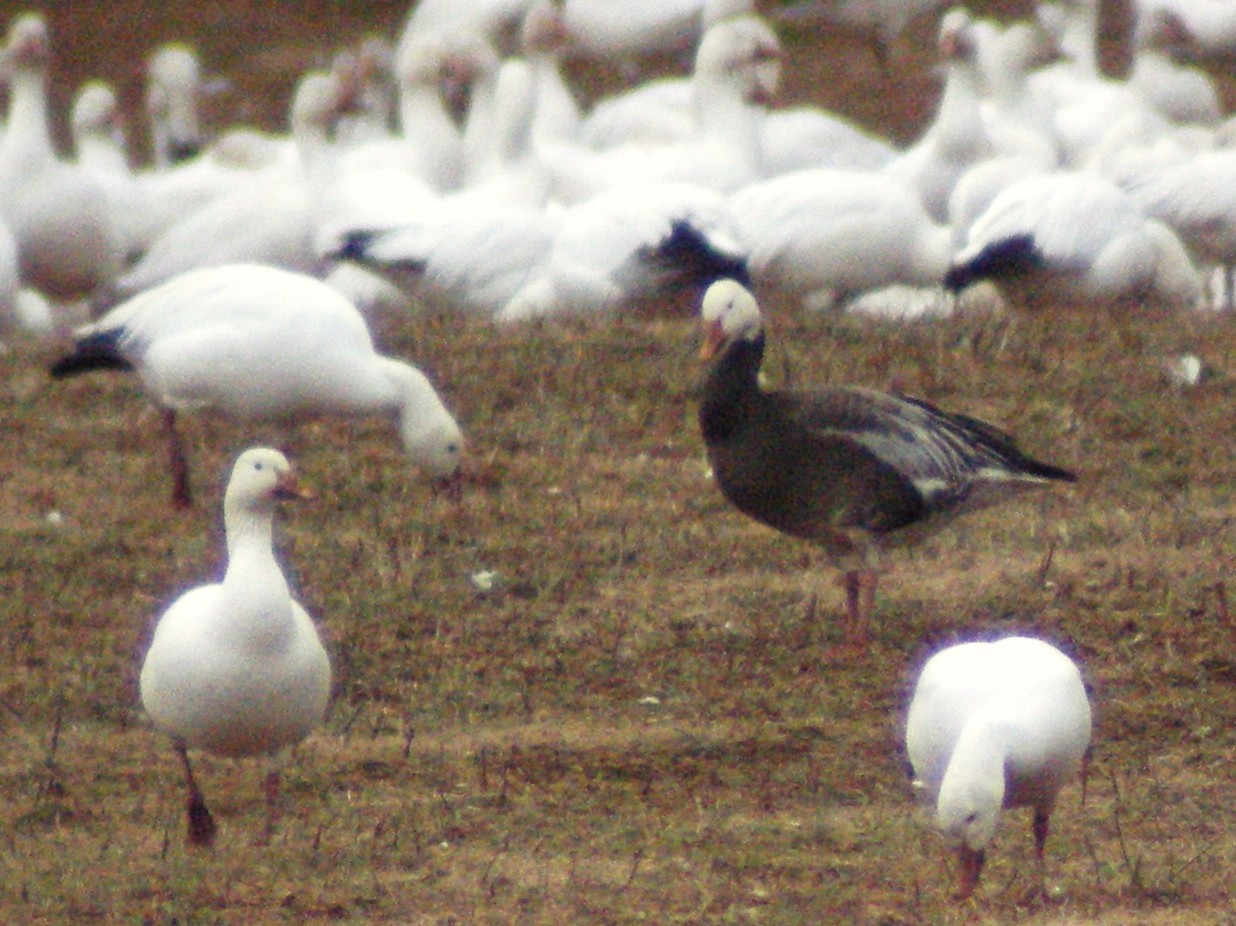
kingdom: Animalia
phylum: Chordata
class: Aves
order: Anseriformes
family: Anatidae
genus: Anser
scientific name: Anser caerulescens
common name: Snow goose
